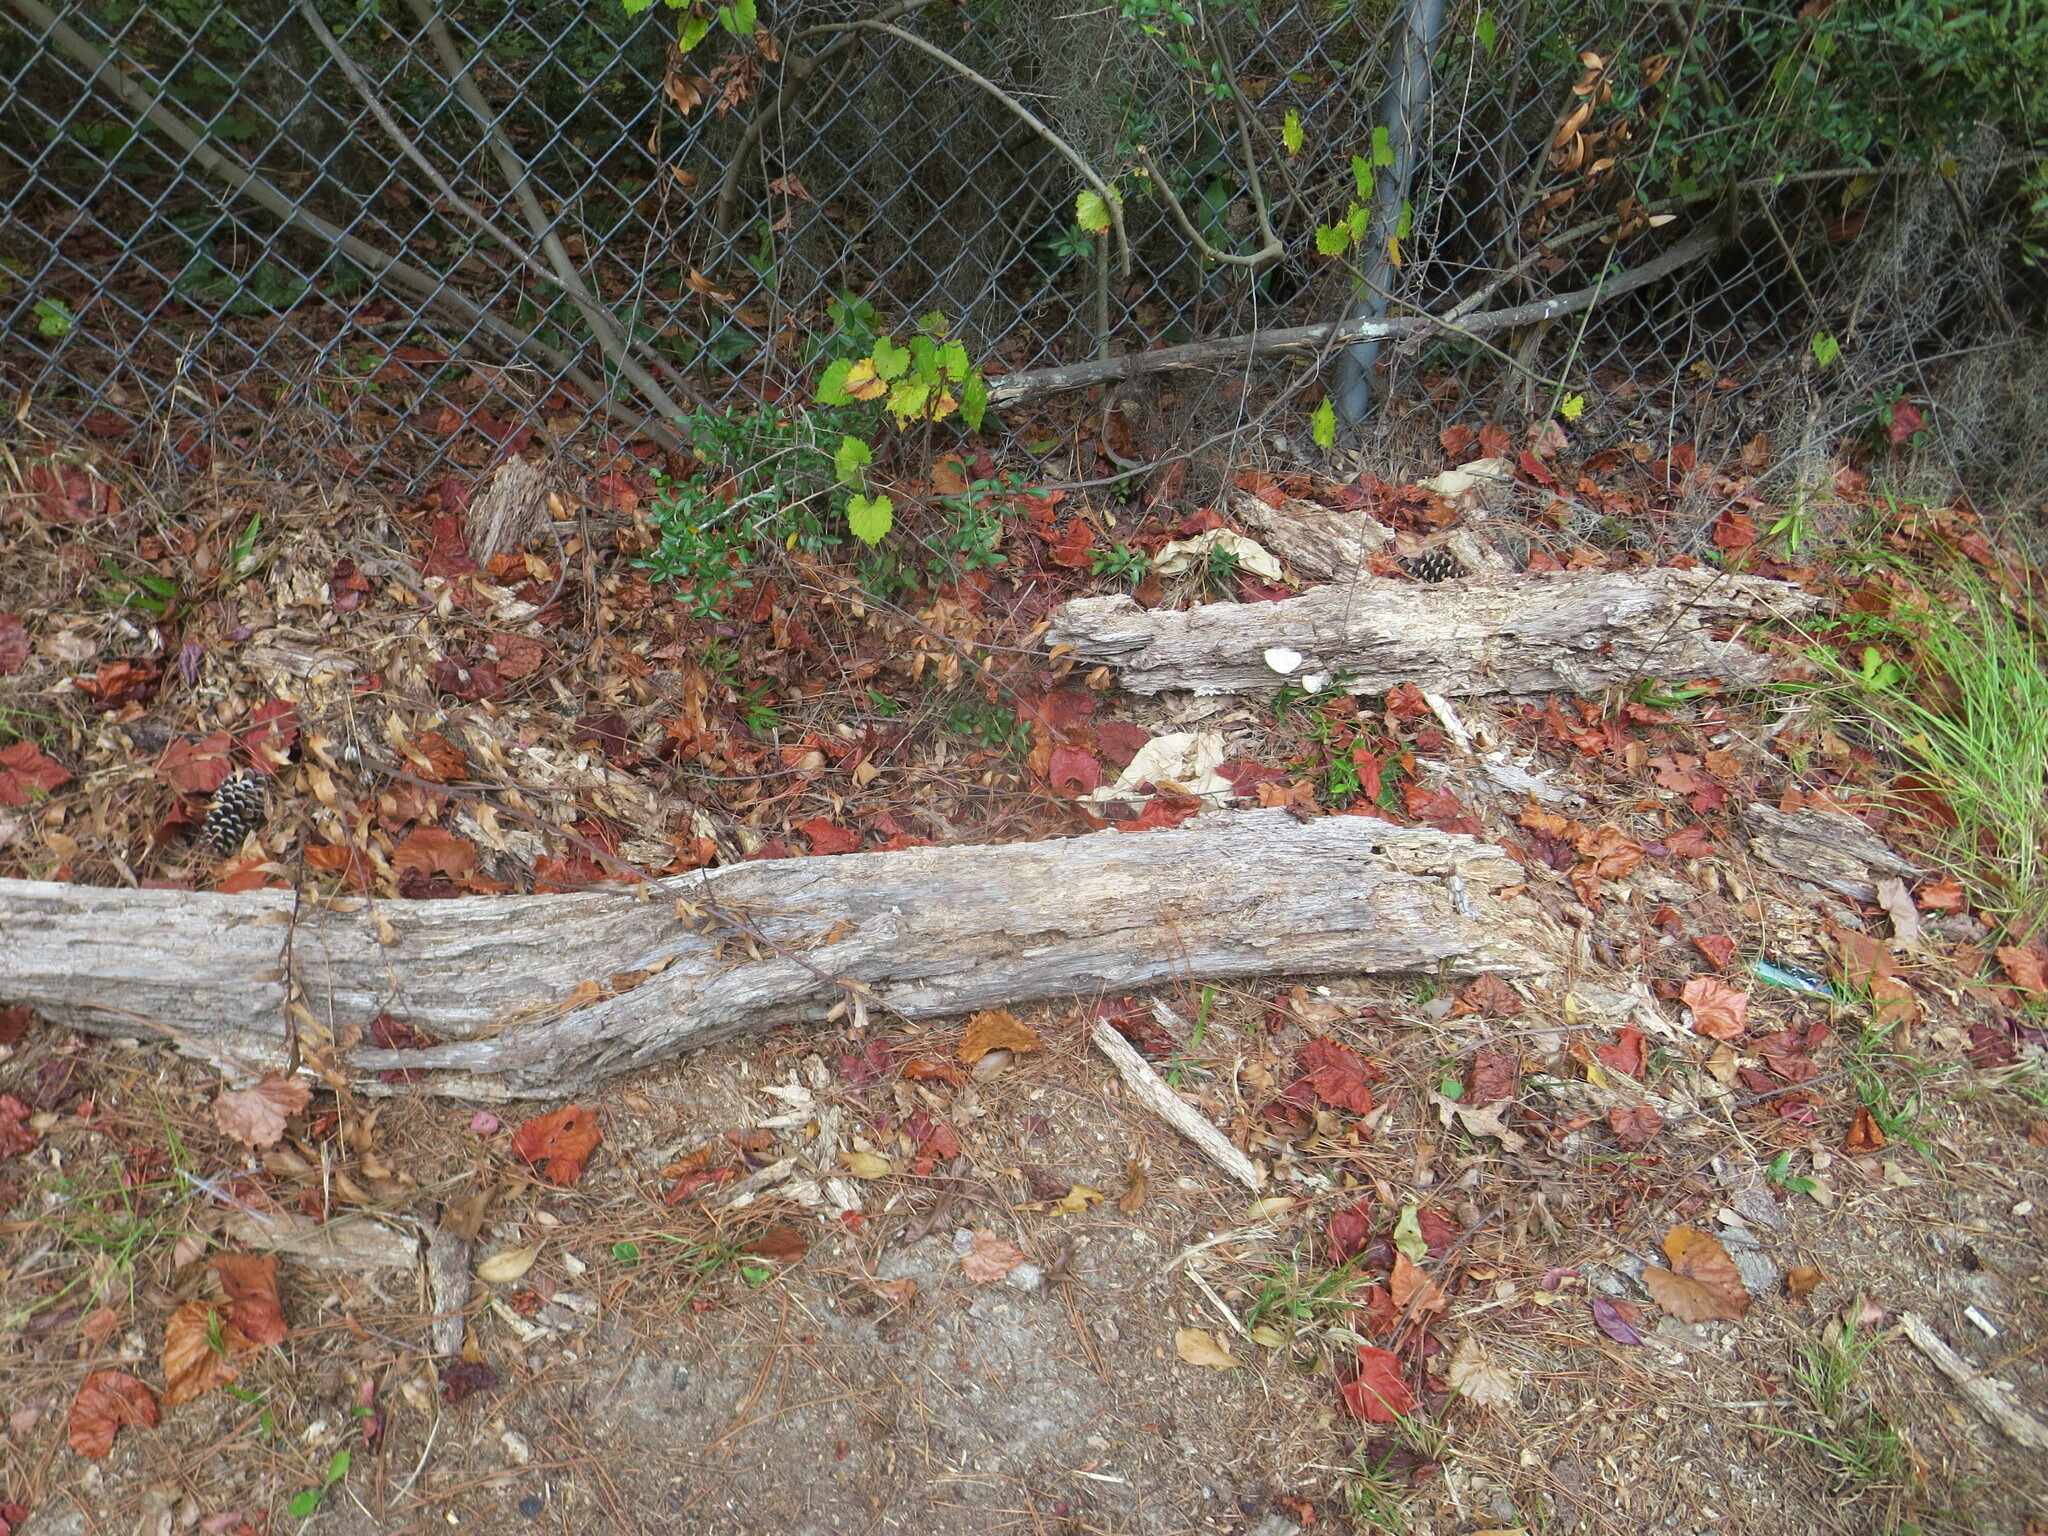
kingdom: Plantae
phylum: Tracheophyta
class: Magnoliopsida
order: Vitales
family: Vitaceae
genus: Vitis
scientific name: Vitis rotundifolia
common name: Muscadine grape
